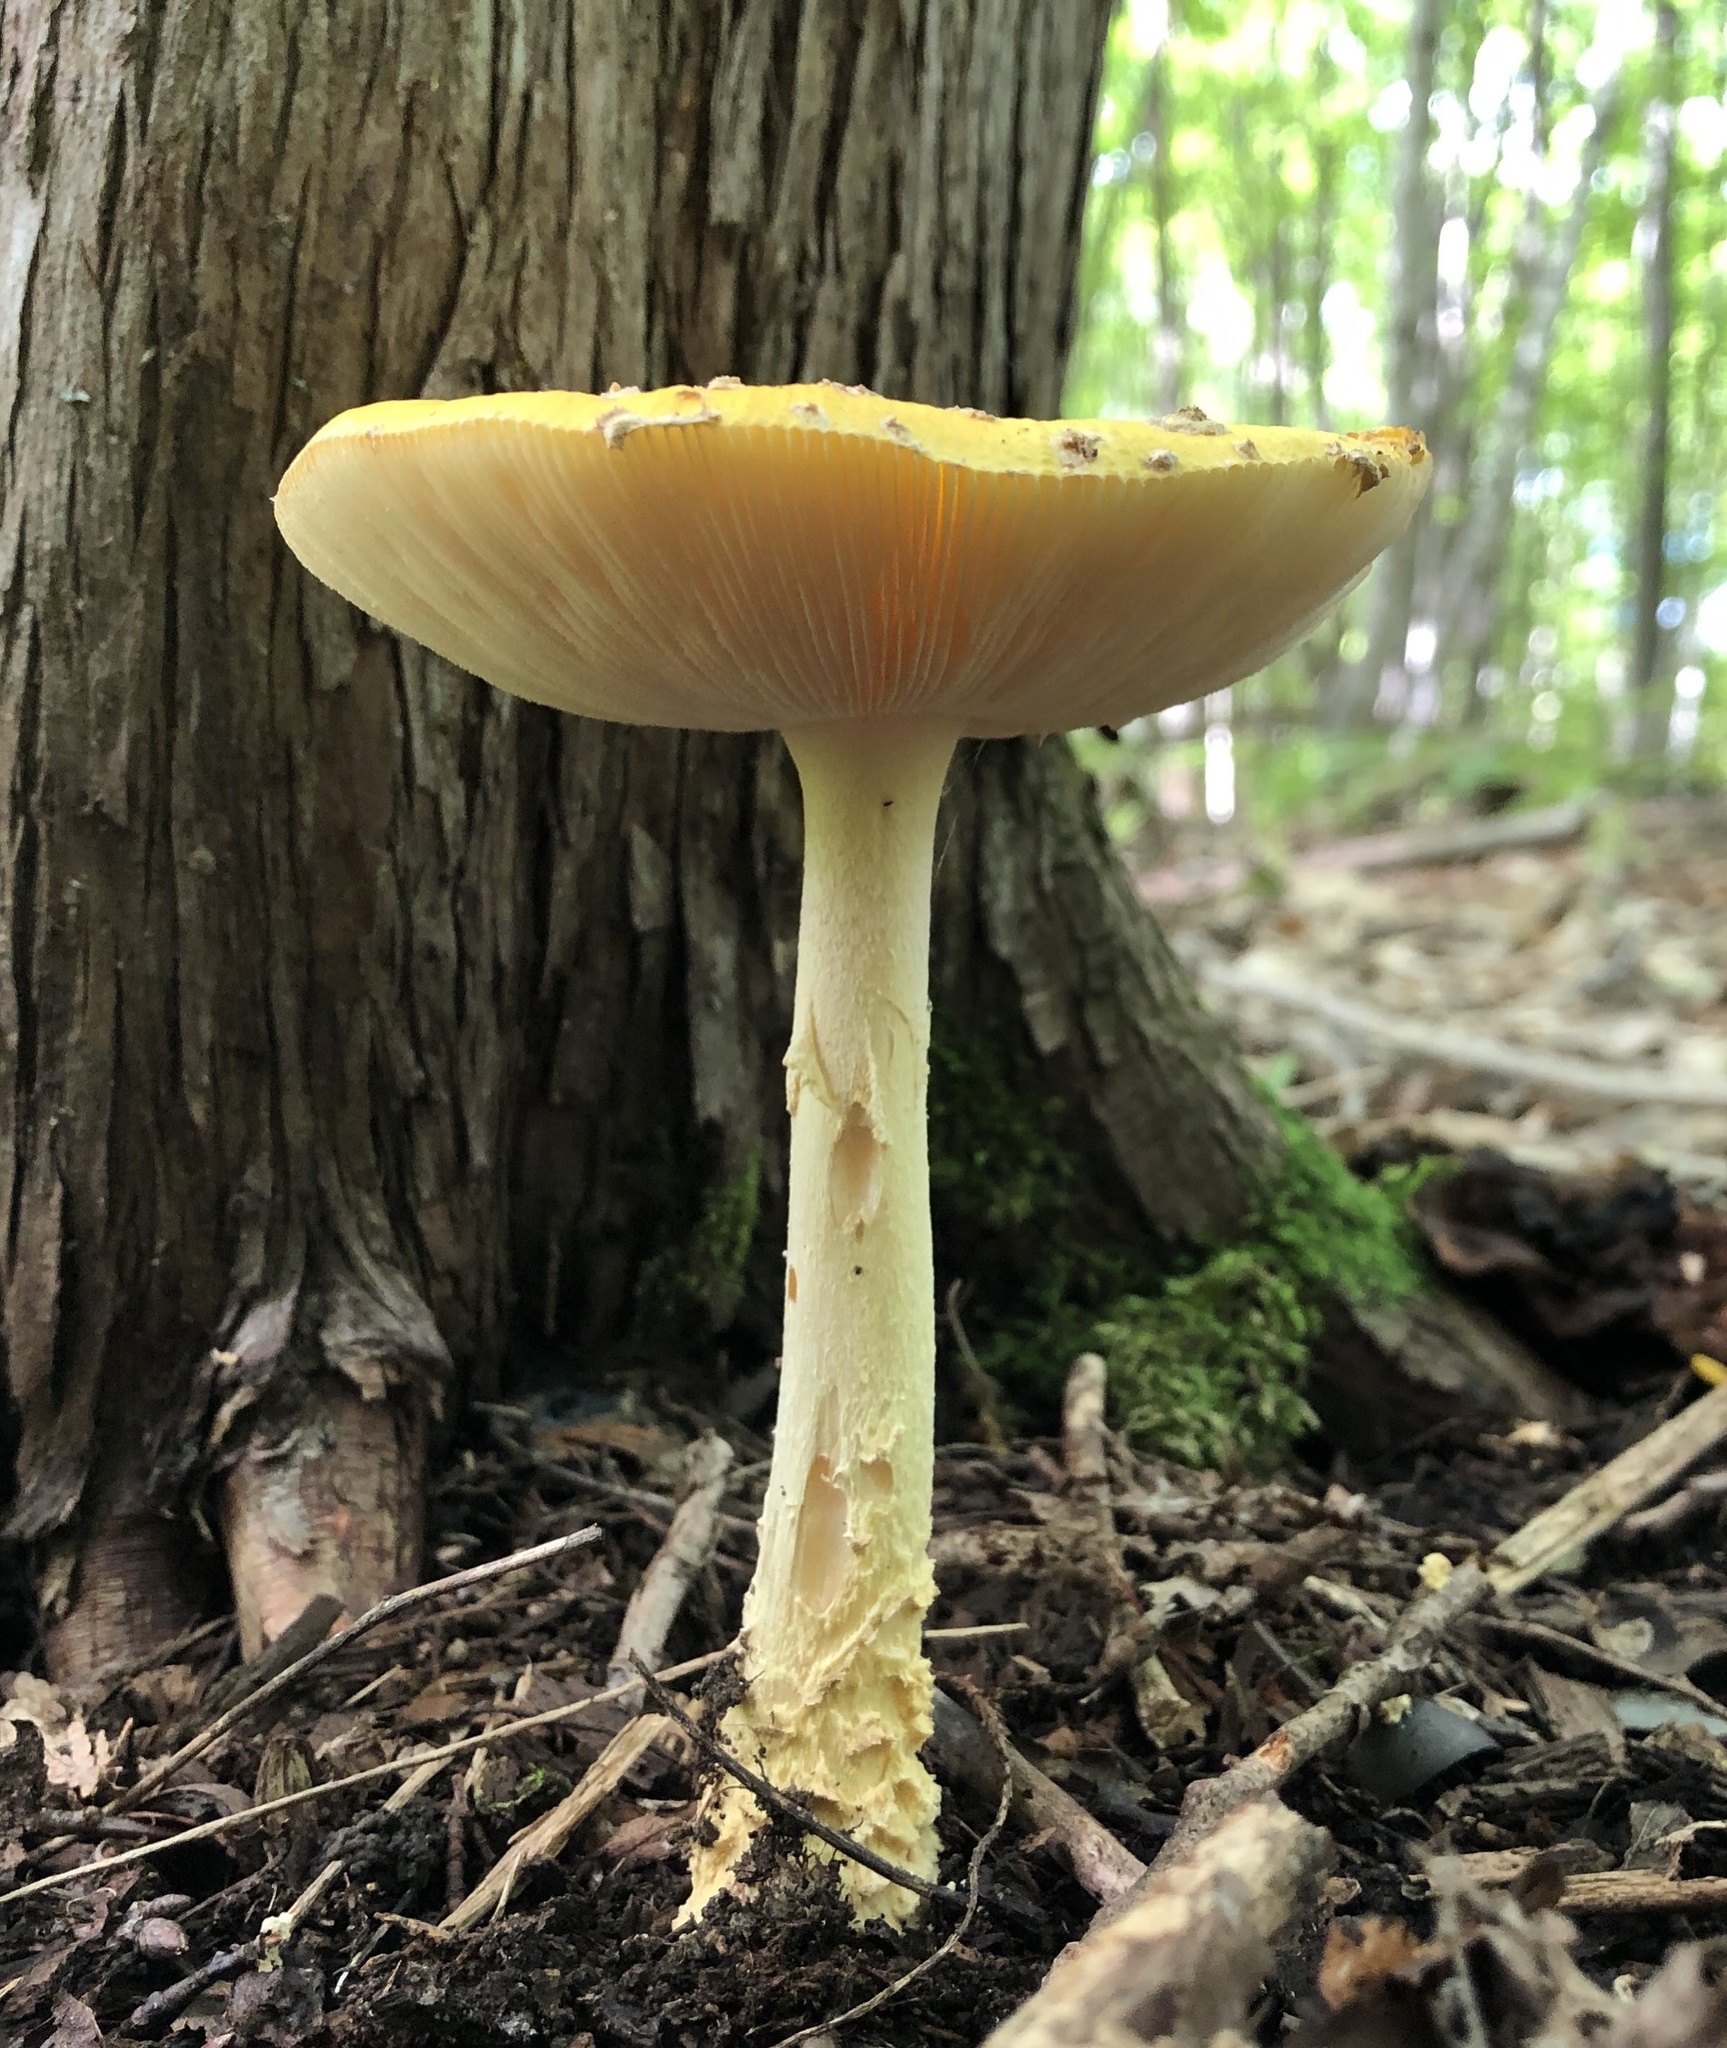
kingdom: Fungi
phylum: Basidiomycota
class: Agaricomycetes
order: Agaricales
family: Amanitaceae
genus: Amanita
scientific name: Amanita muscaria
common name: Fly agaric
